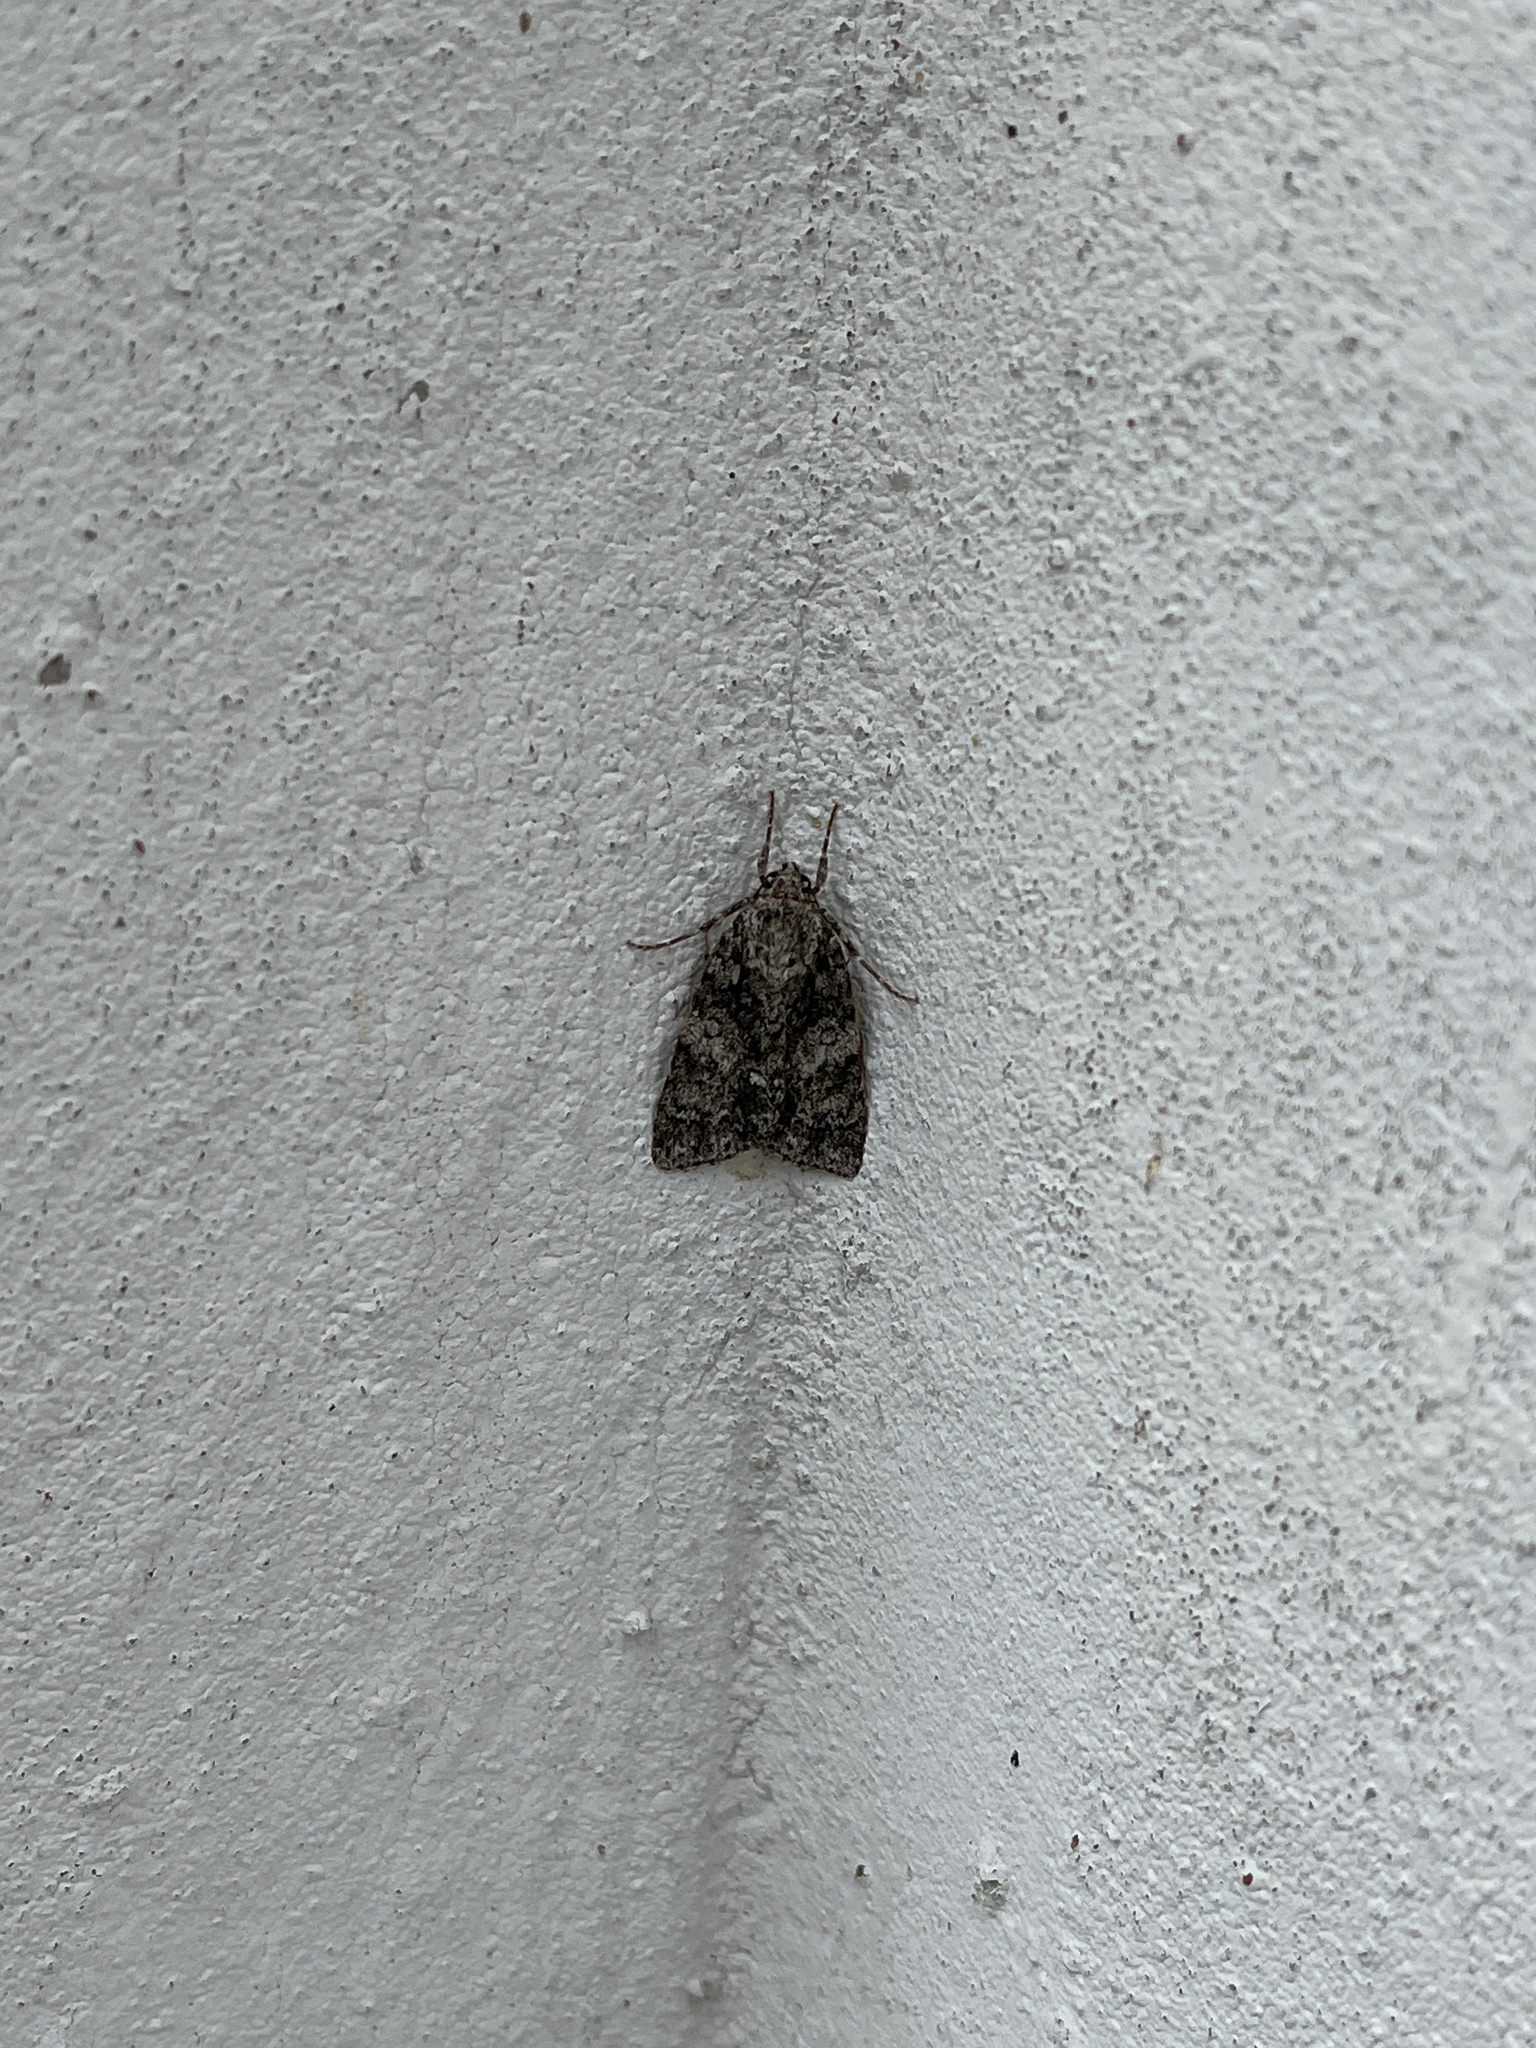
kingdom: Animalia
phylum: Arthropoda
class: Insecta
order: Lepidoptera
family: Noctuidae
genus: Acronicta
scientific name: Acronicta rumicis
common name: Knot grass
